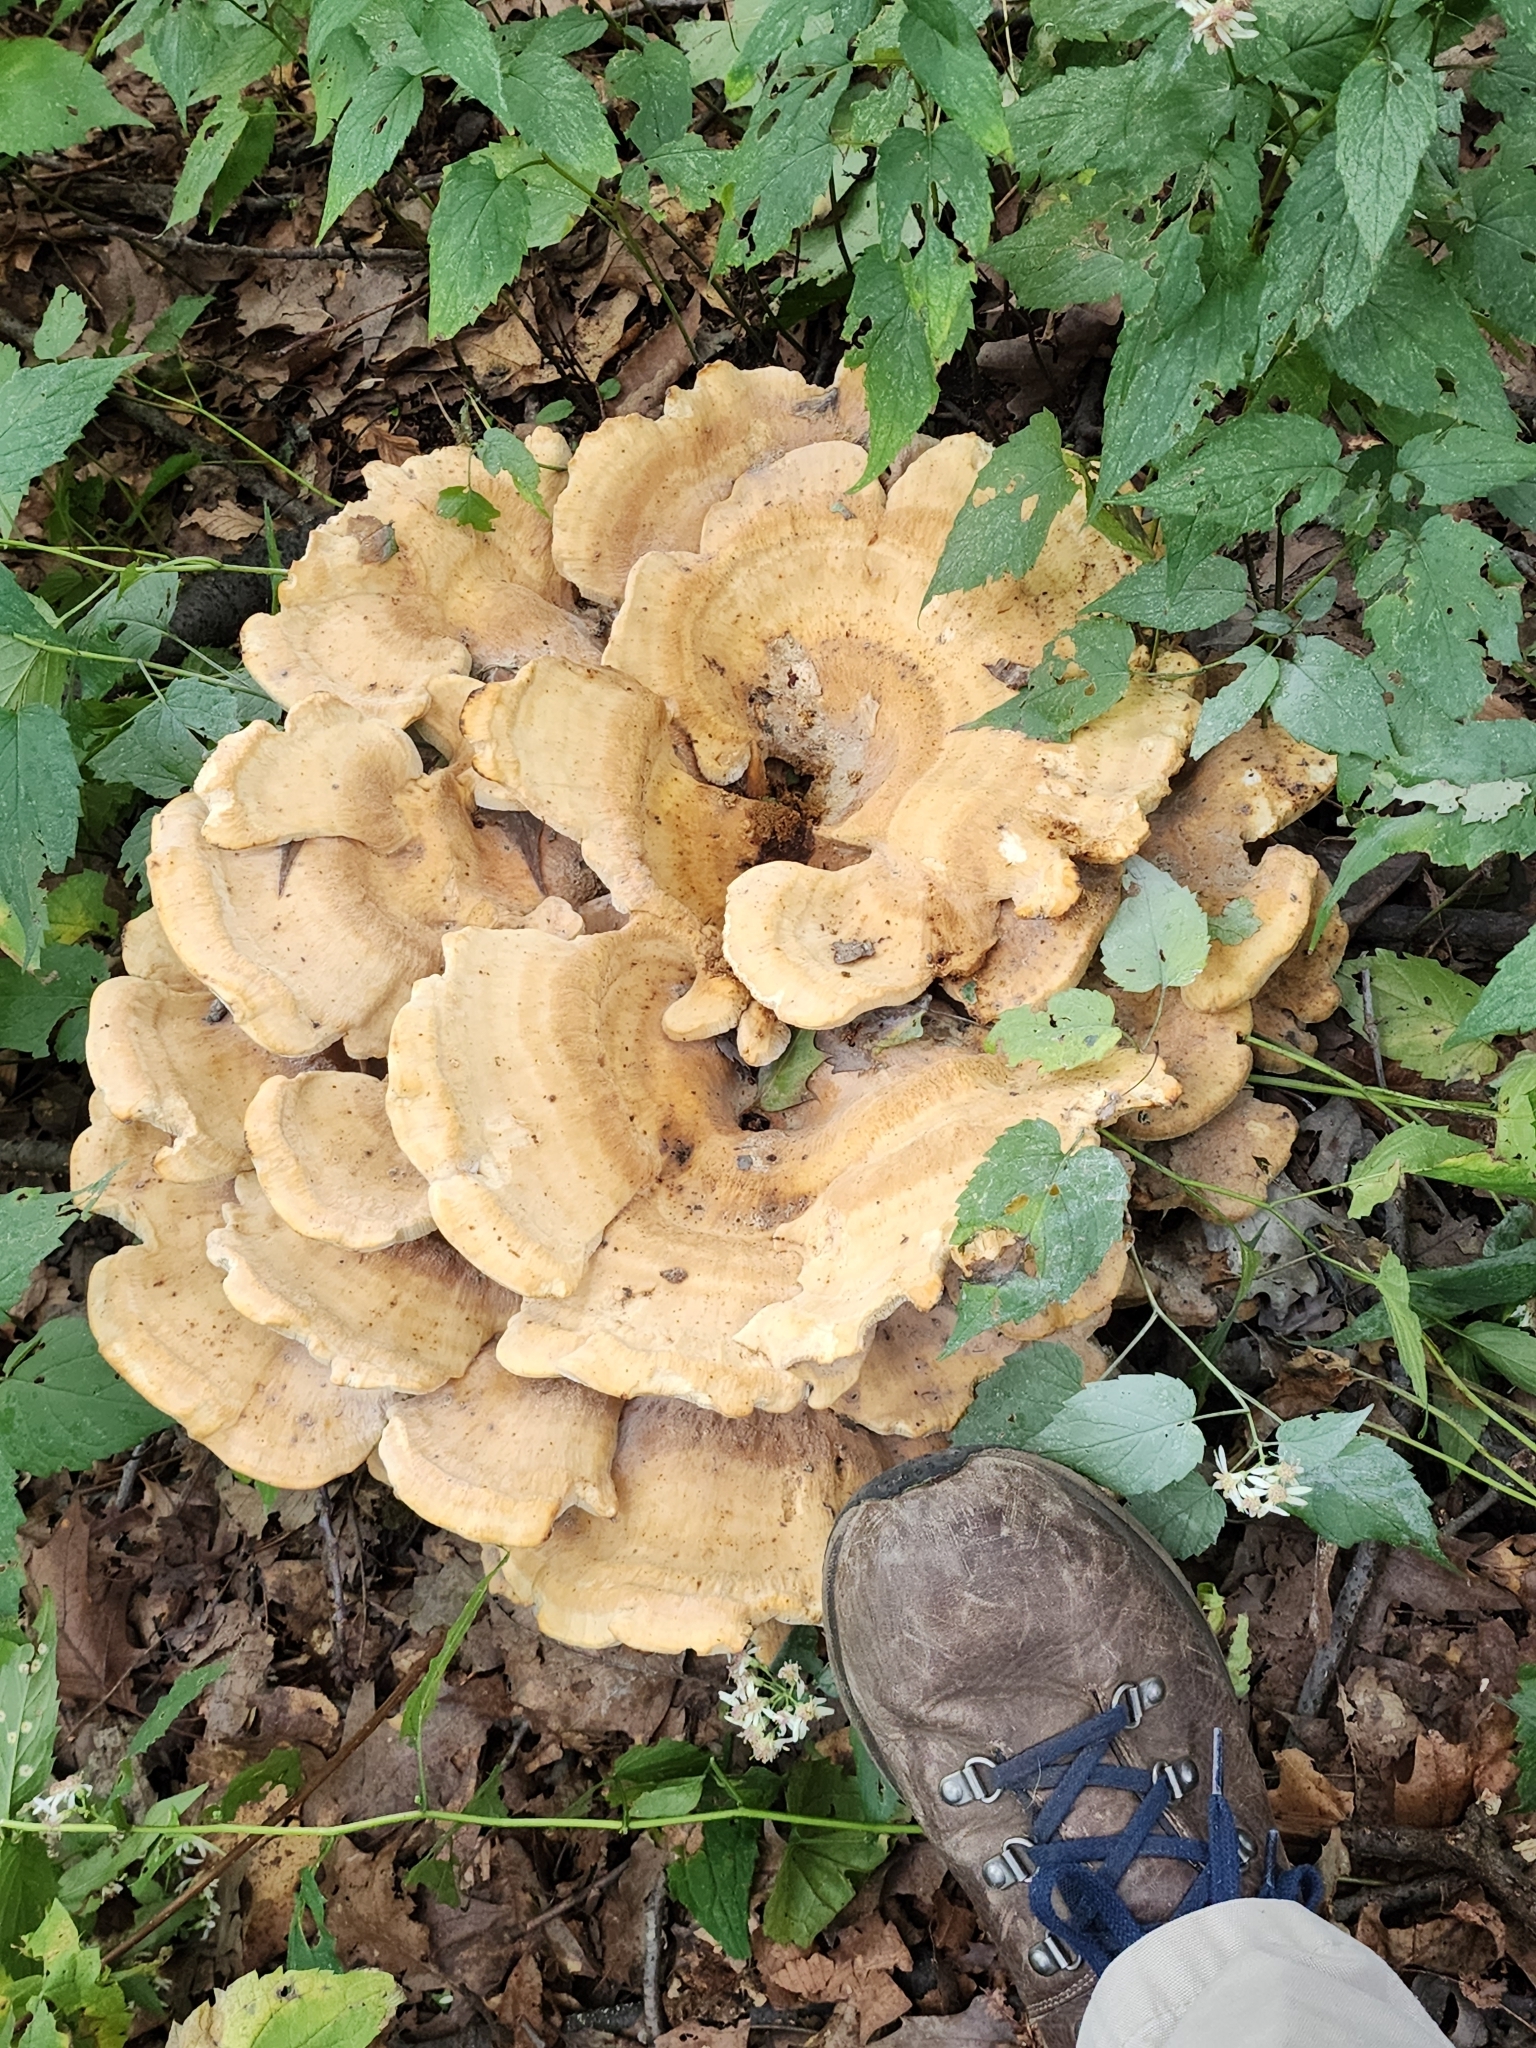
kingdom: Fungi
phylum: Basidiomycota
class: Agaricomycetes
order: Russulales
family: Bondarzewiaceae
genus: Bondarzewia
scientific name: Bondarzewia berkeleyi
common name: Berkeley's polypore
